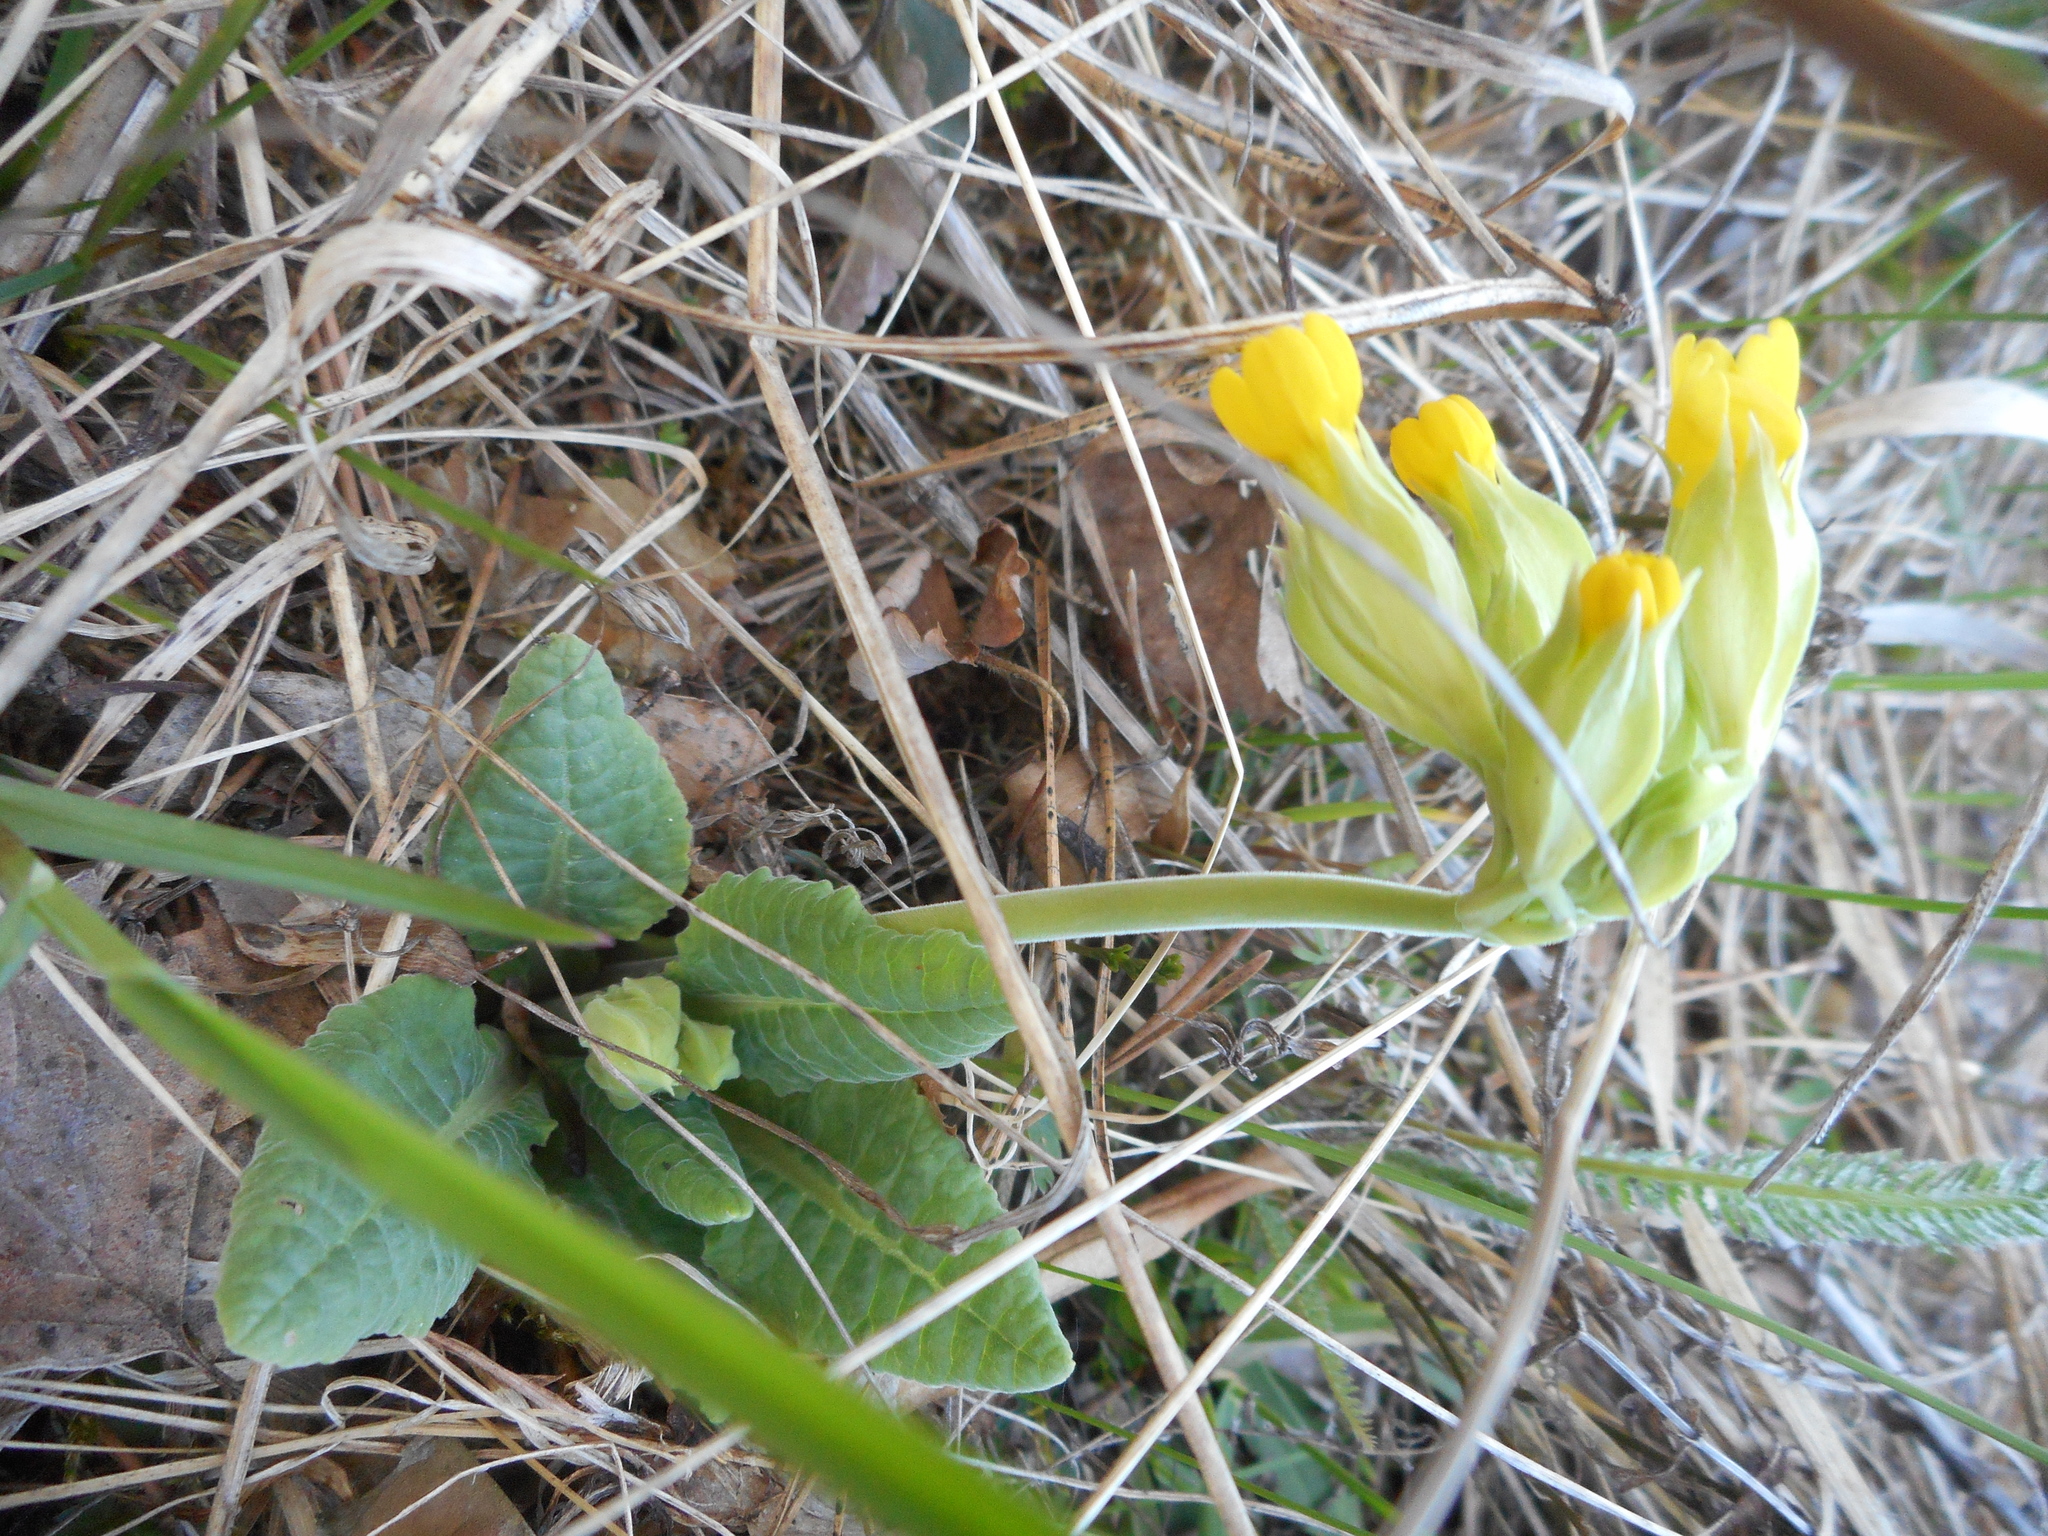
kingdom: Plantae
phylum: Tracheophyta
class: Magnoliopsida
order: Ericales
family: Primulaceae
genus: Primula
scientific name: Primula veris
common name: Cowslip
